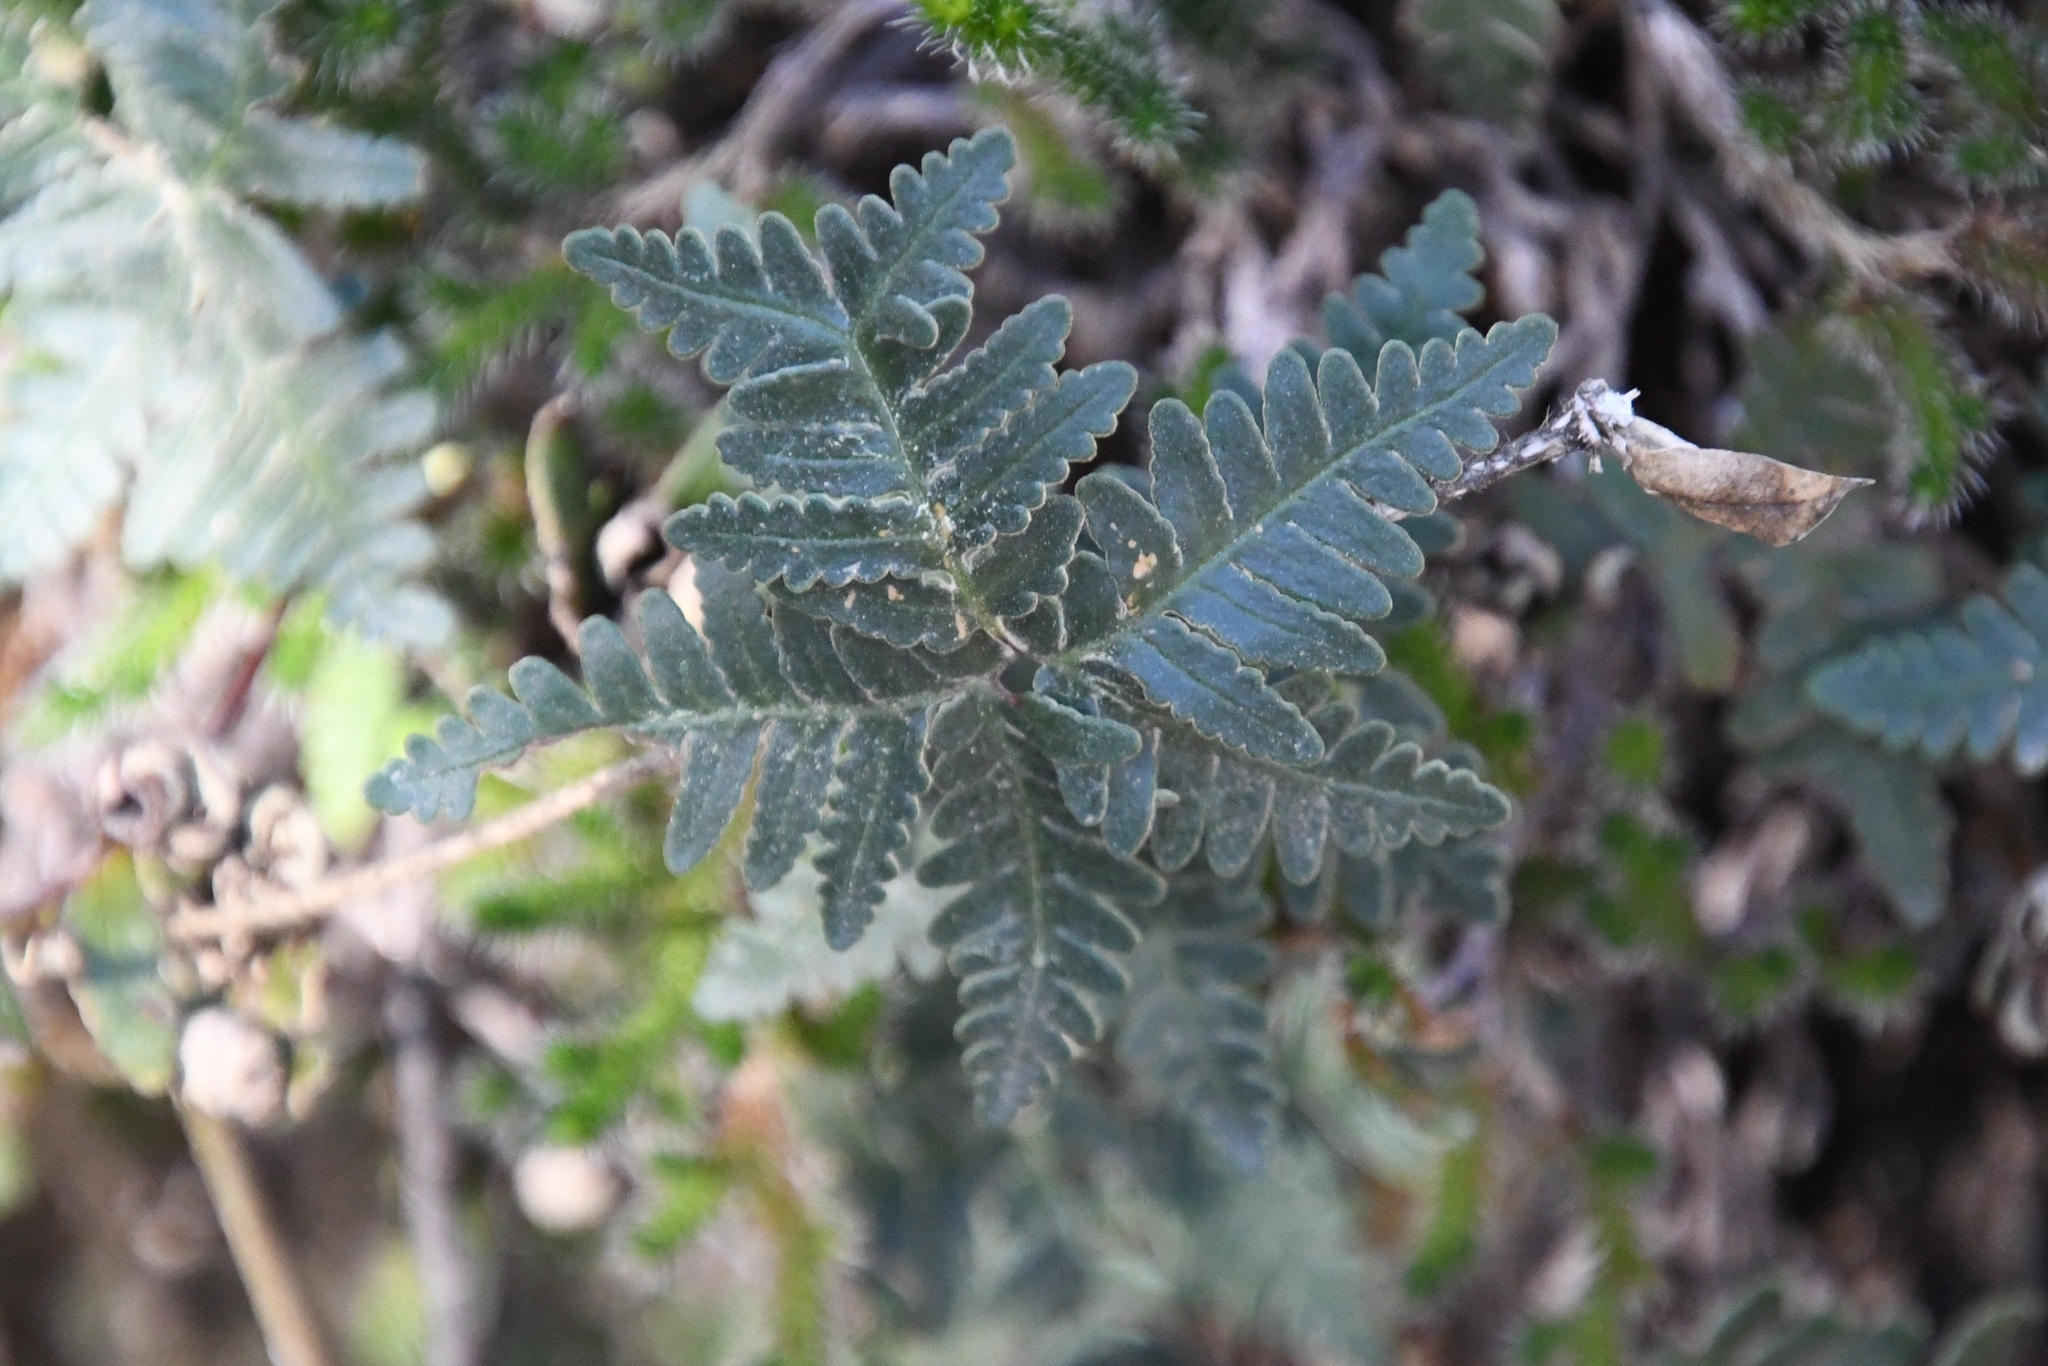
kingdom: Plantae
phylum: Tracheophyta
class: Polypodiopsida
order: Polypodiales
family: Pteridaceae
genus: Notholaena
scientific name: Notholaena standleyi
